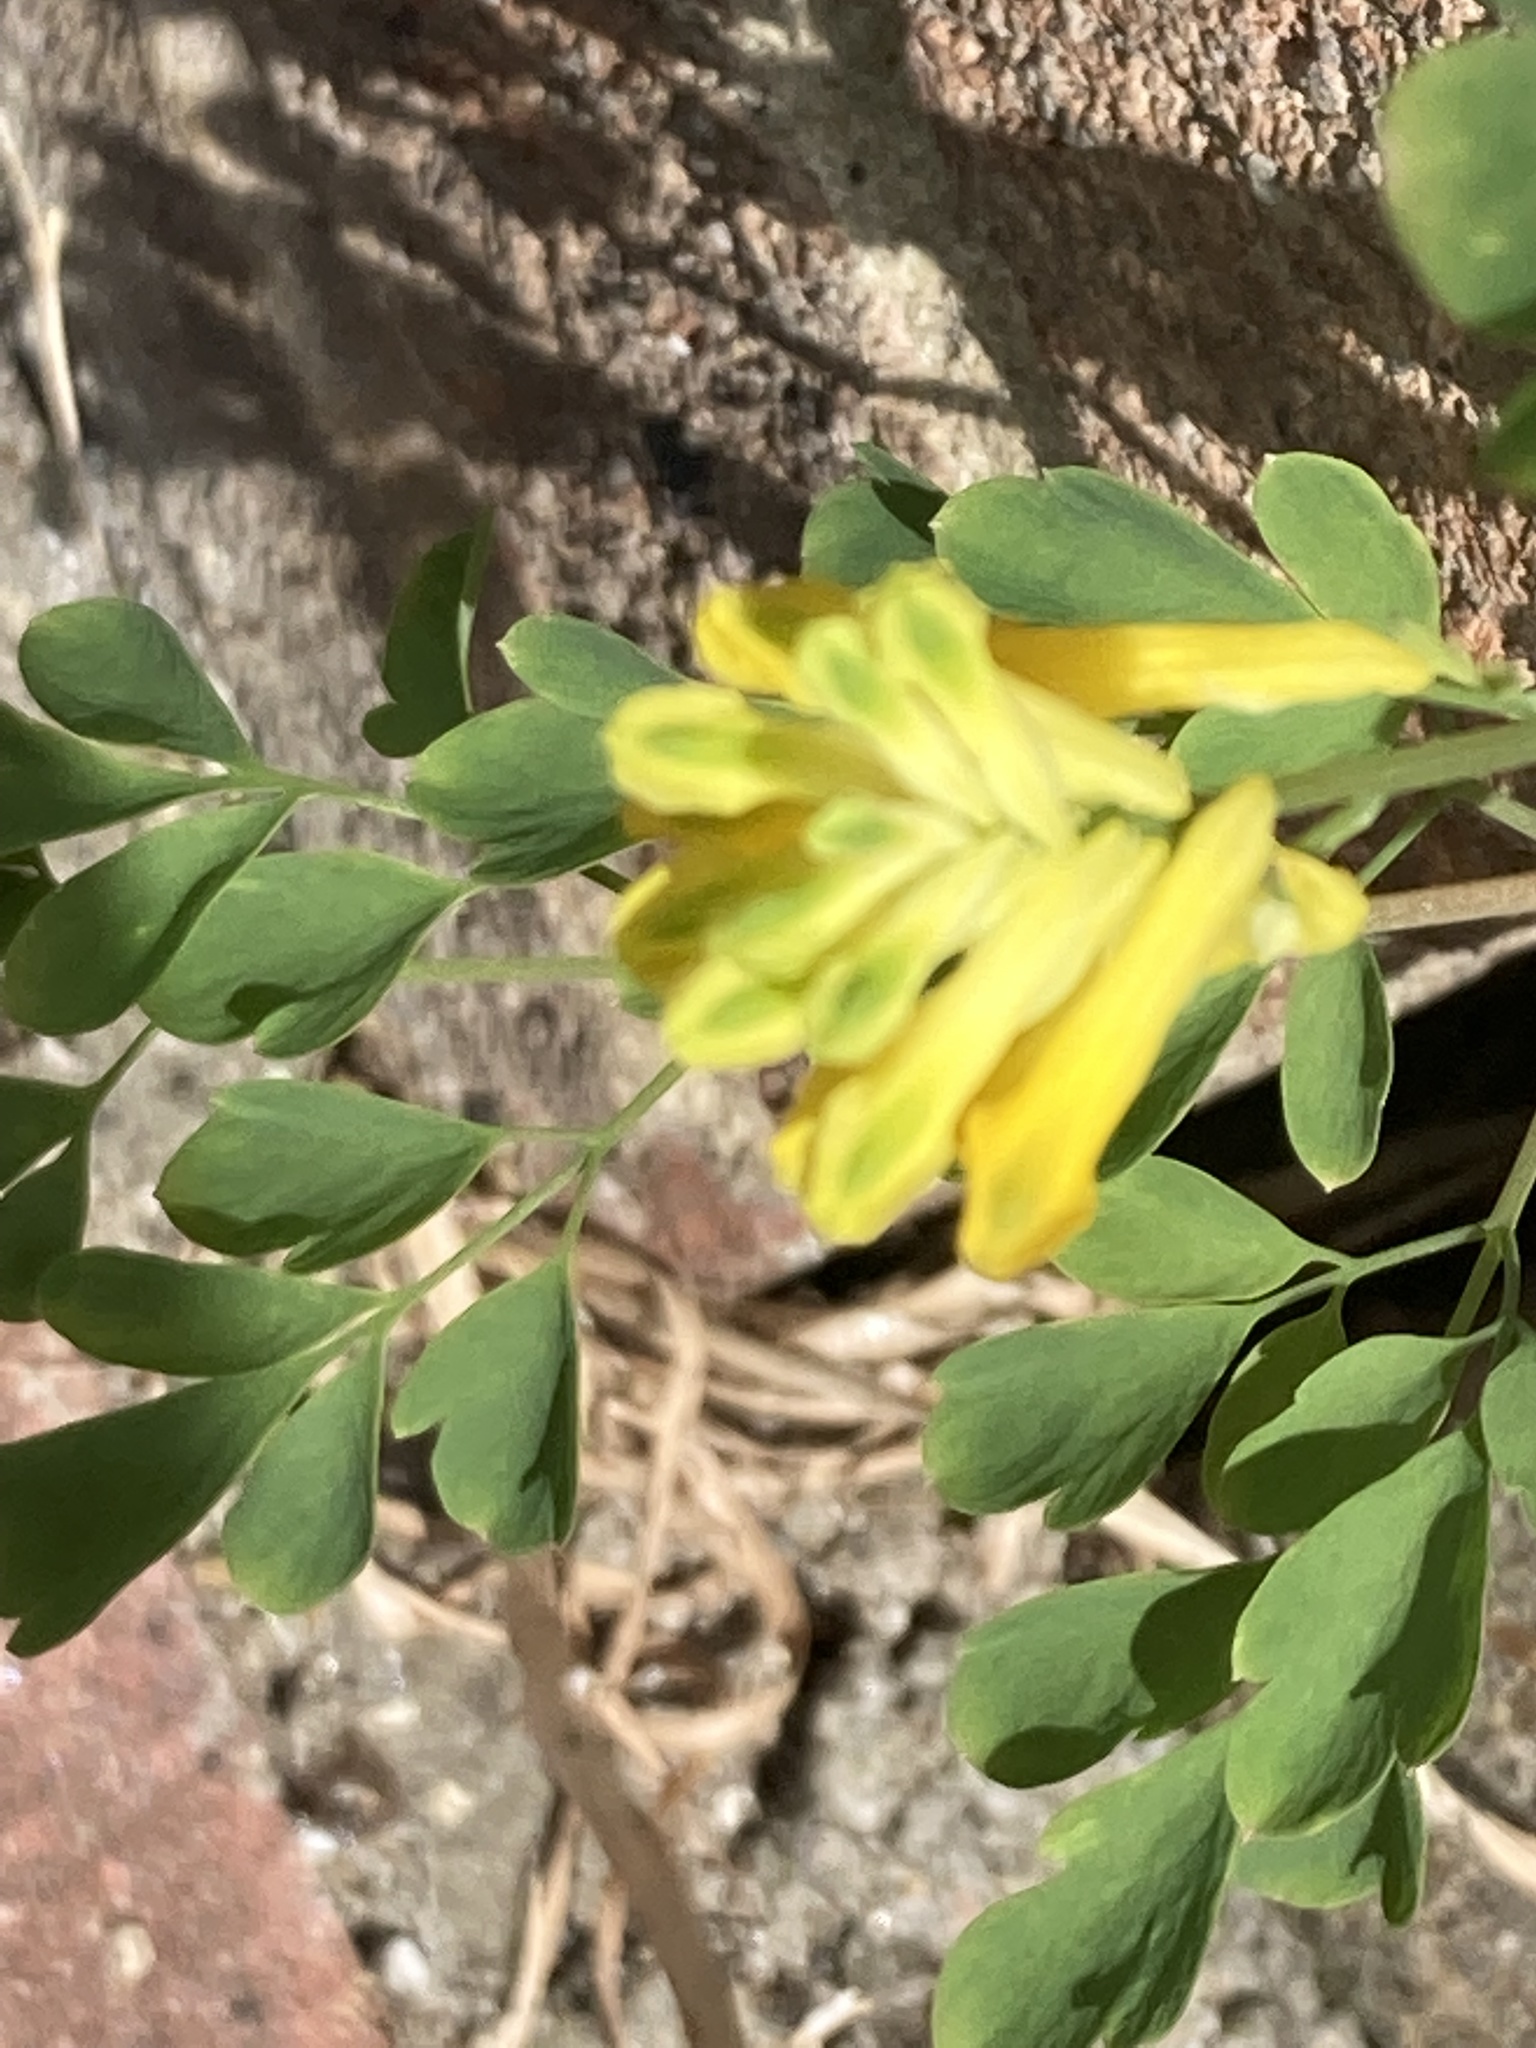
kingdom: Plantae
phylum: Tracheophyta
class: Magnoliopsida
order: Ranunculales
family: Papaveraceae
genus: Pseudofumaria
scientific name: Pseudofumaria lutea
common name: Yellow corydalis
